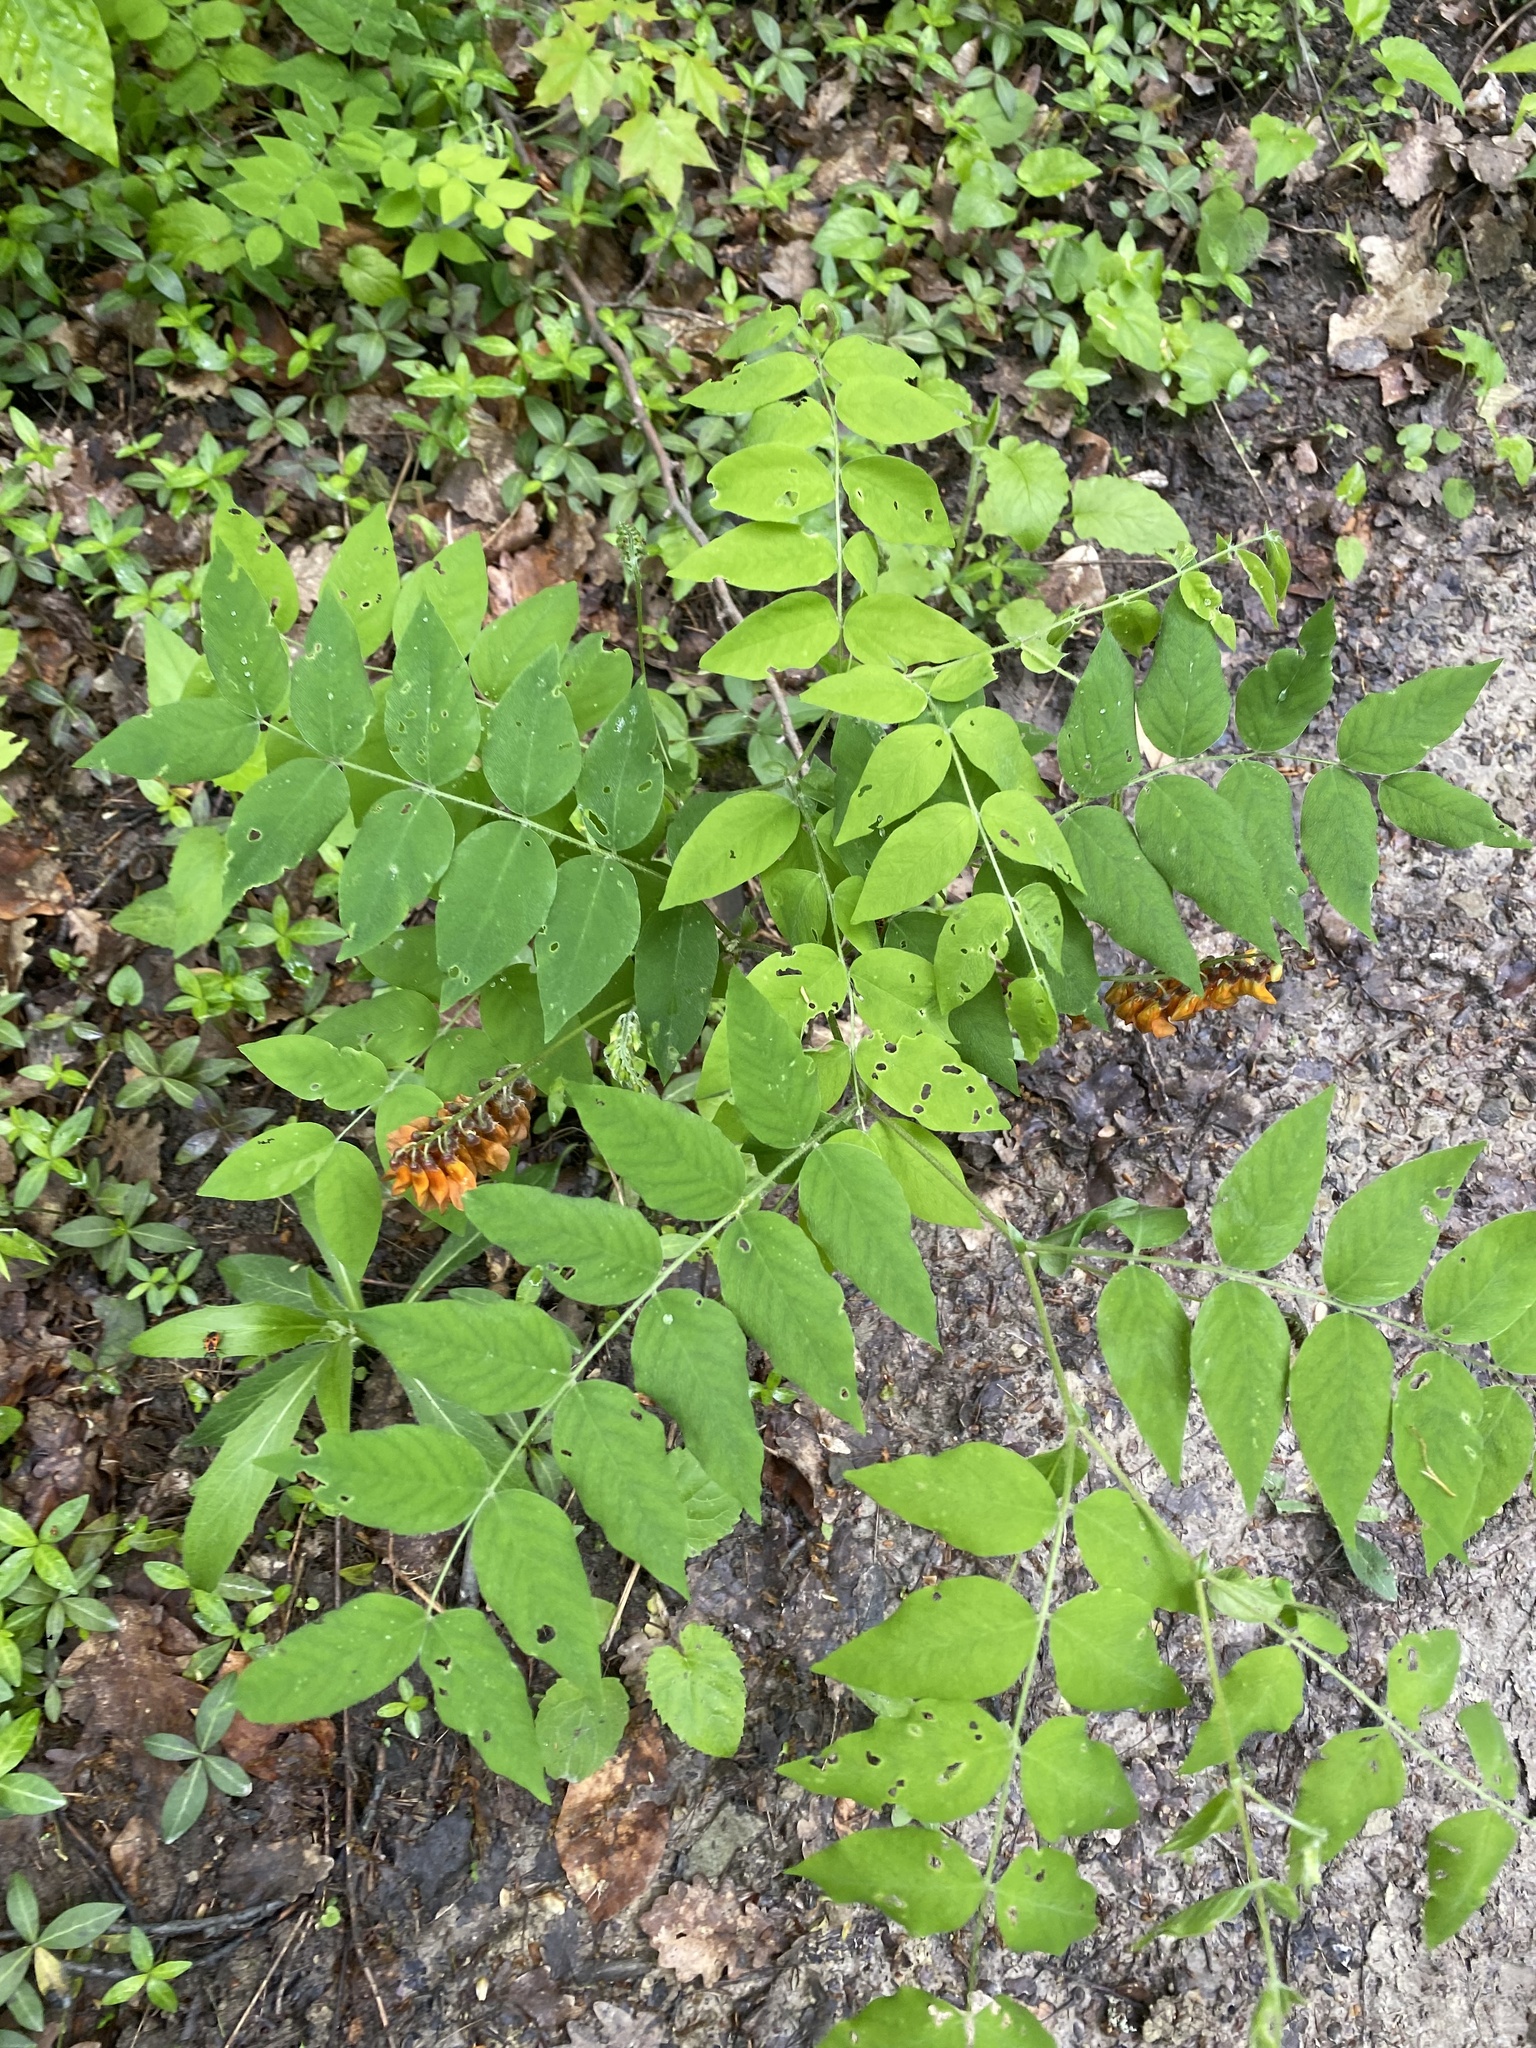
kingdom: Plantae
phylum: Tracheophyta
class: Magnoliopsida
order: Fabales
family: Fabaceae
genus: Vicia
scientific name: Vicia crocea
